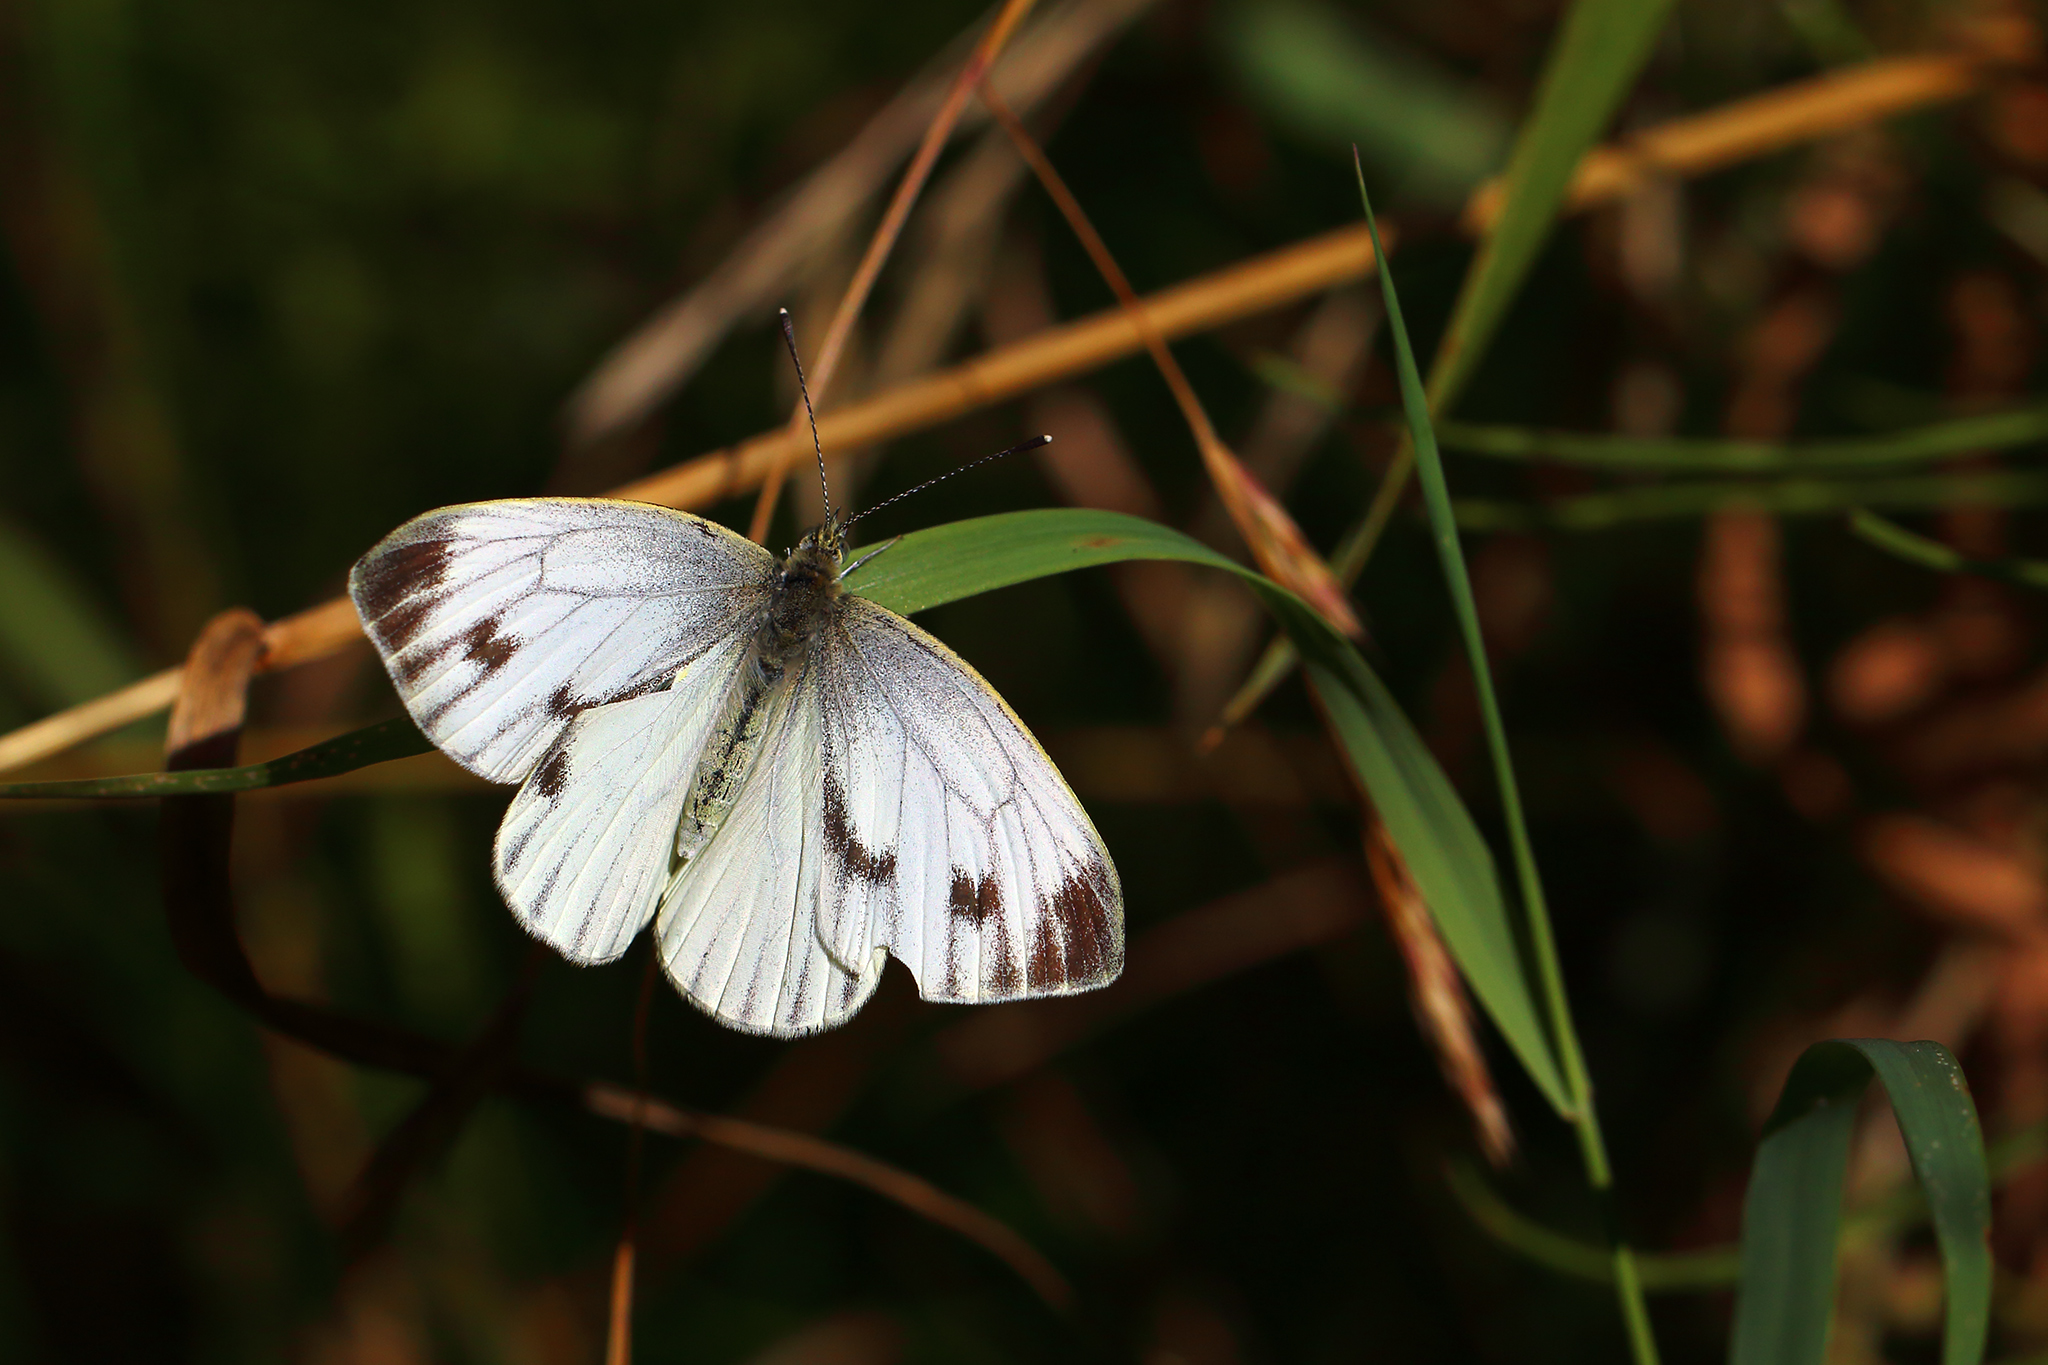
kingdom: Animalia
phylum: Arthropoda
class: Insecta
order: Lepidoptera
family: Pieridae
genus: Pieris
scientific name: Pieris napi
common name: Green-veined white
